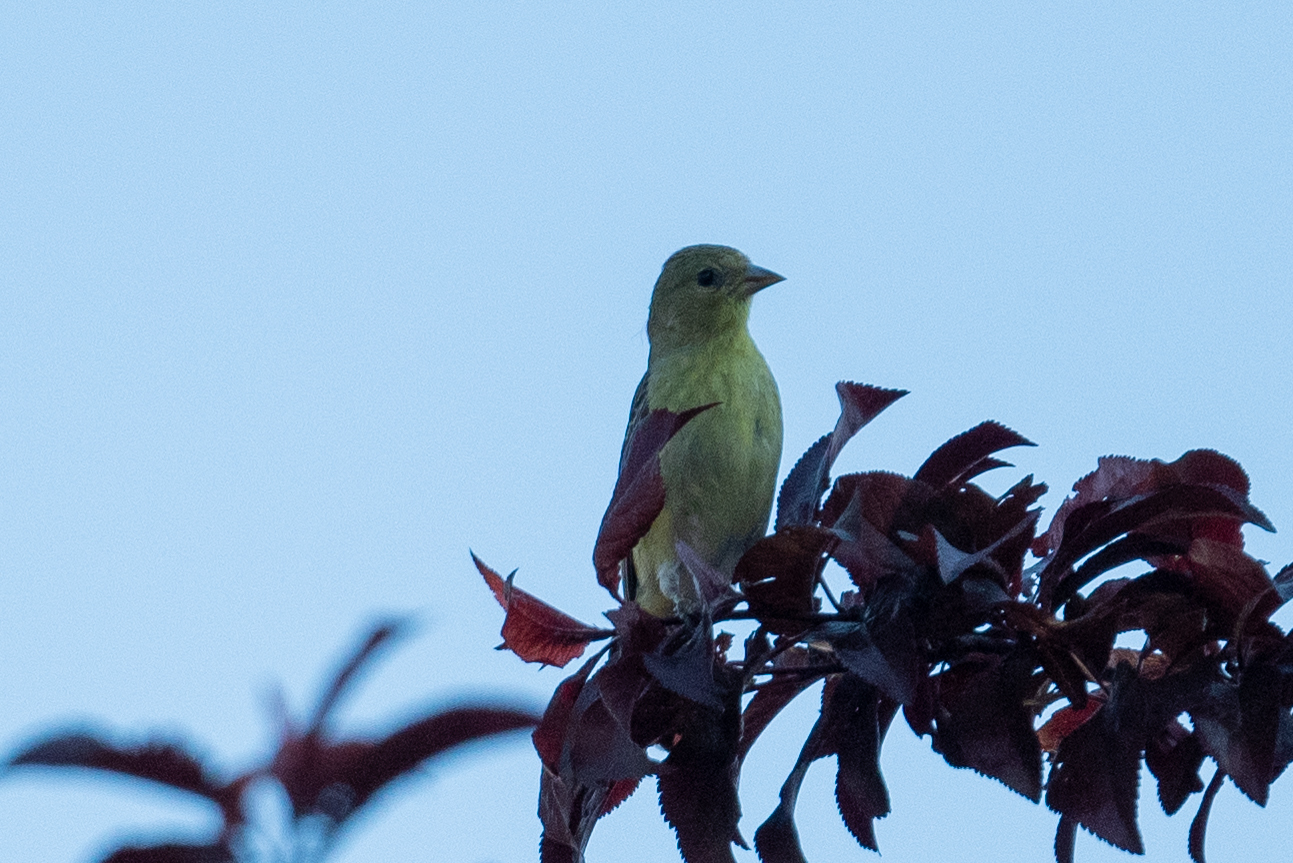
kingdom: Animalia
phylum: Chordata
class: Aves
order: Passeriformes
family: Fringillidae
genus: Spinus
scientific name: Spinus psaltria
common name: Lesser goldfinch
